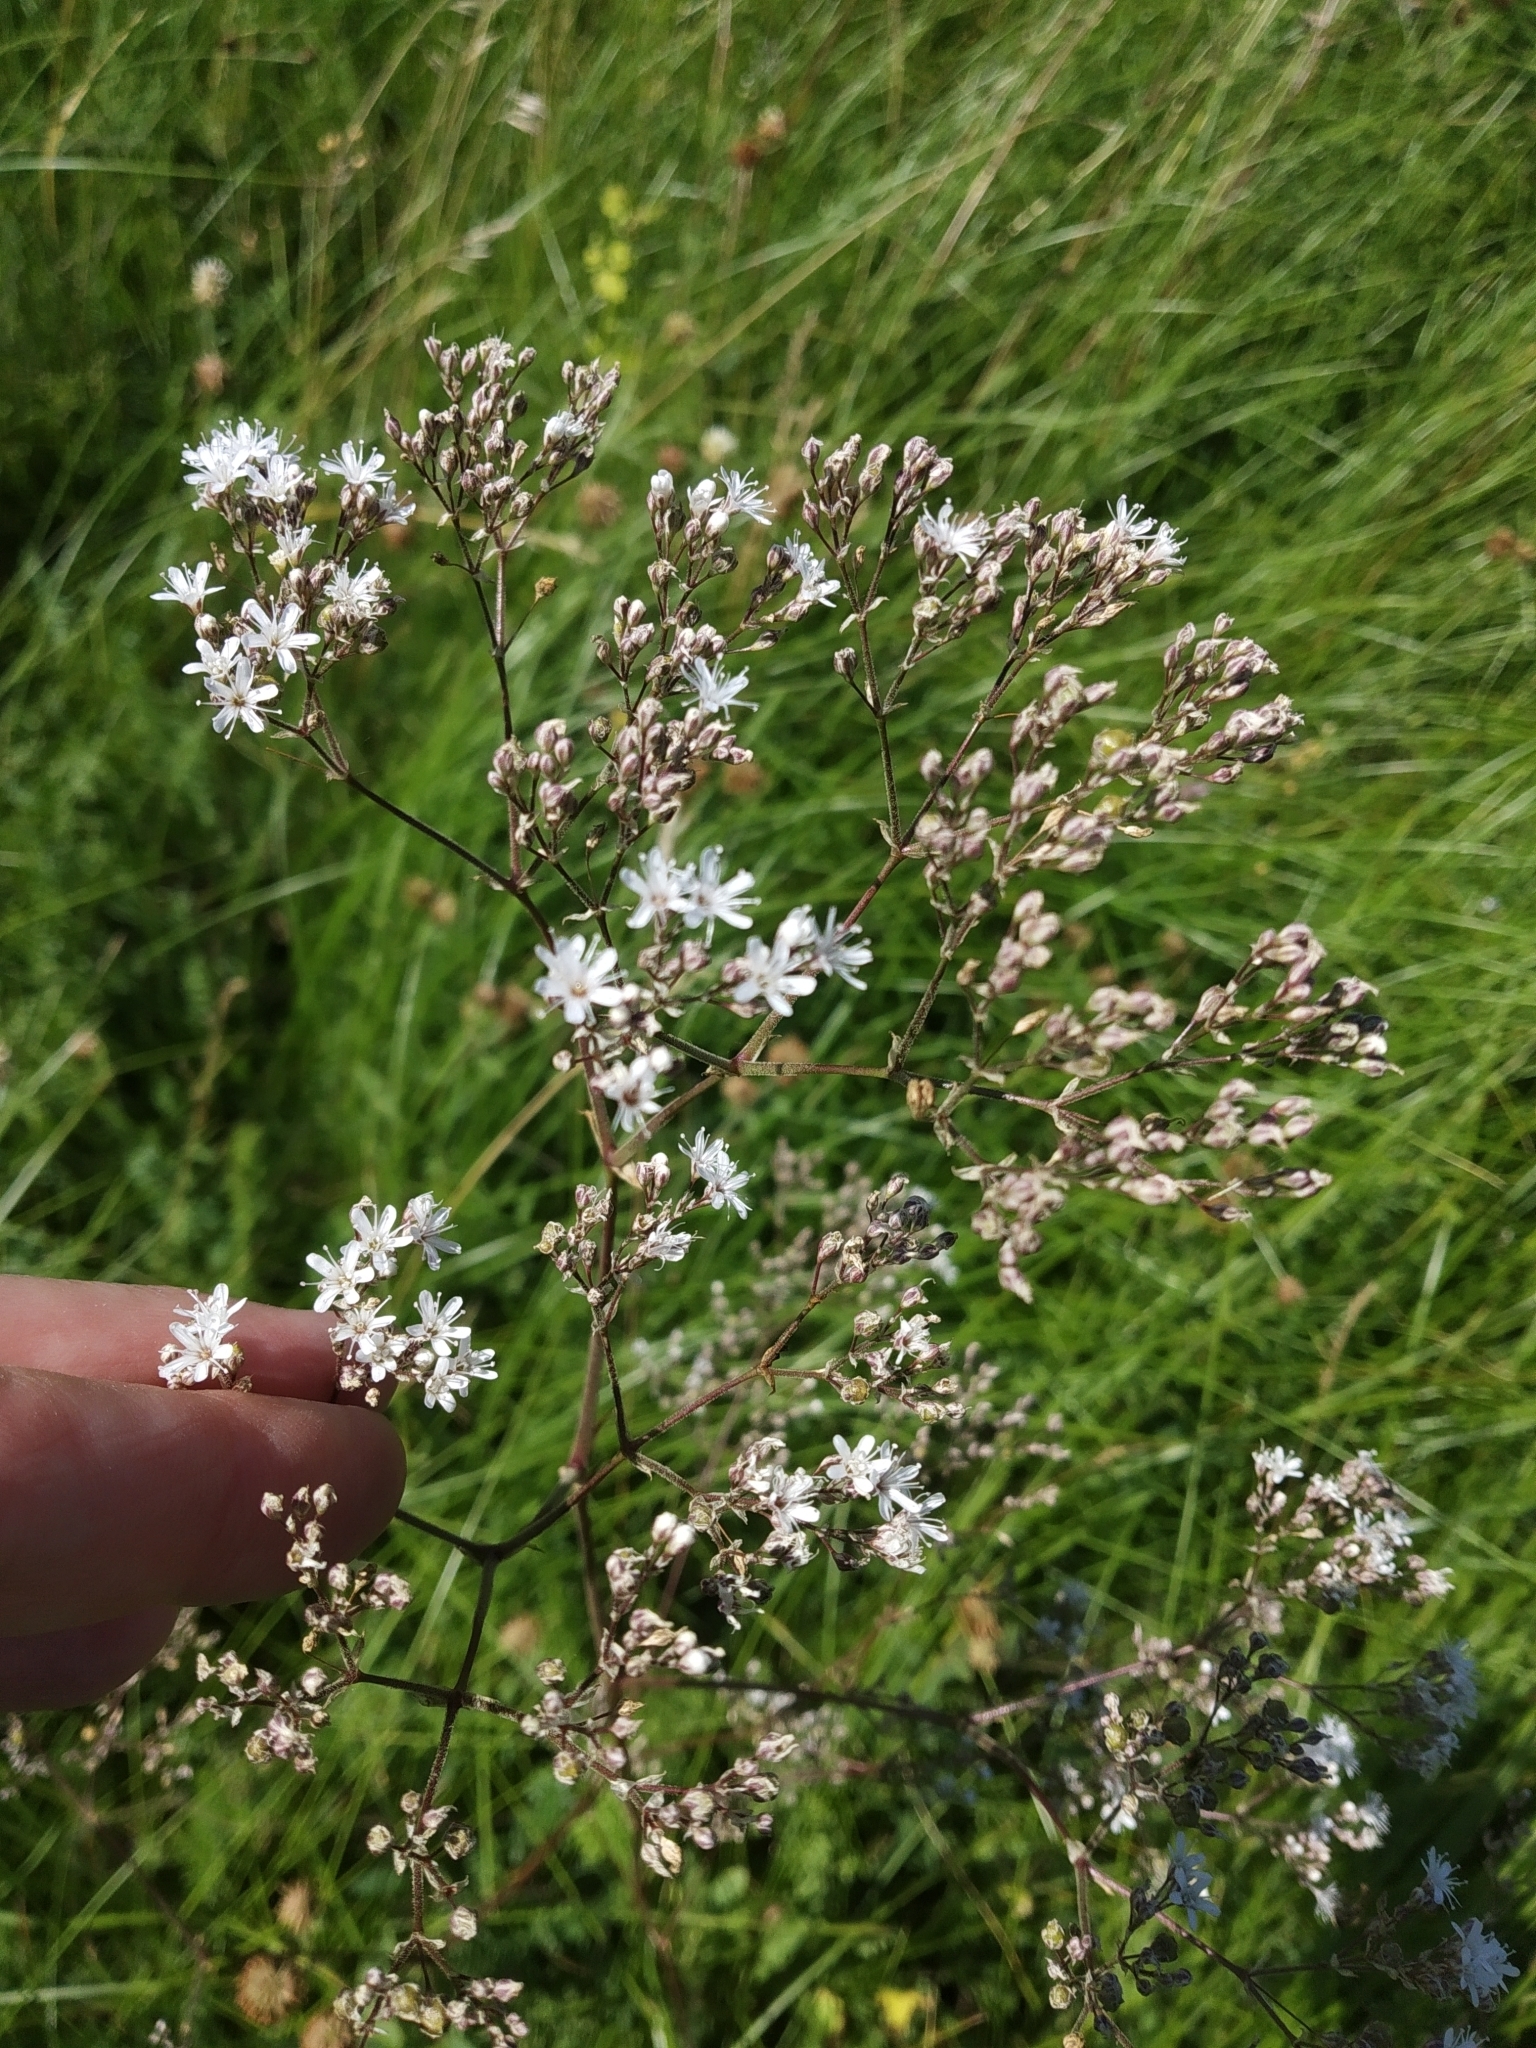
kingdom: Plantae
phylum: Tracheophyta
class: Magnoliopsida
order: Caryophyllales
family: Caryophyllaceae
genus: Gypsophila
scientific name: Gypsophila altissima
